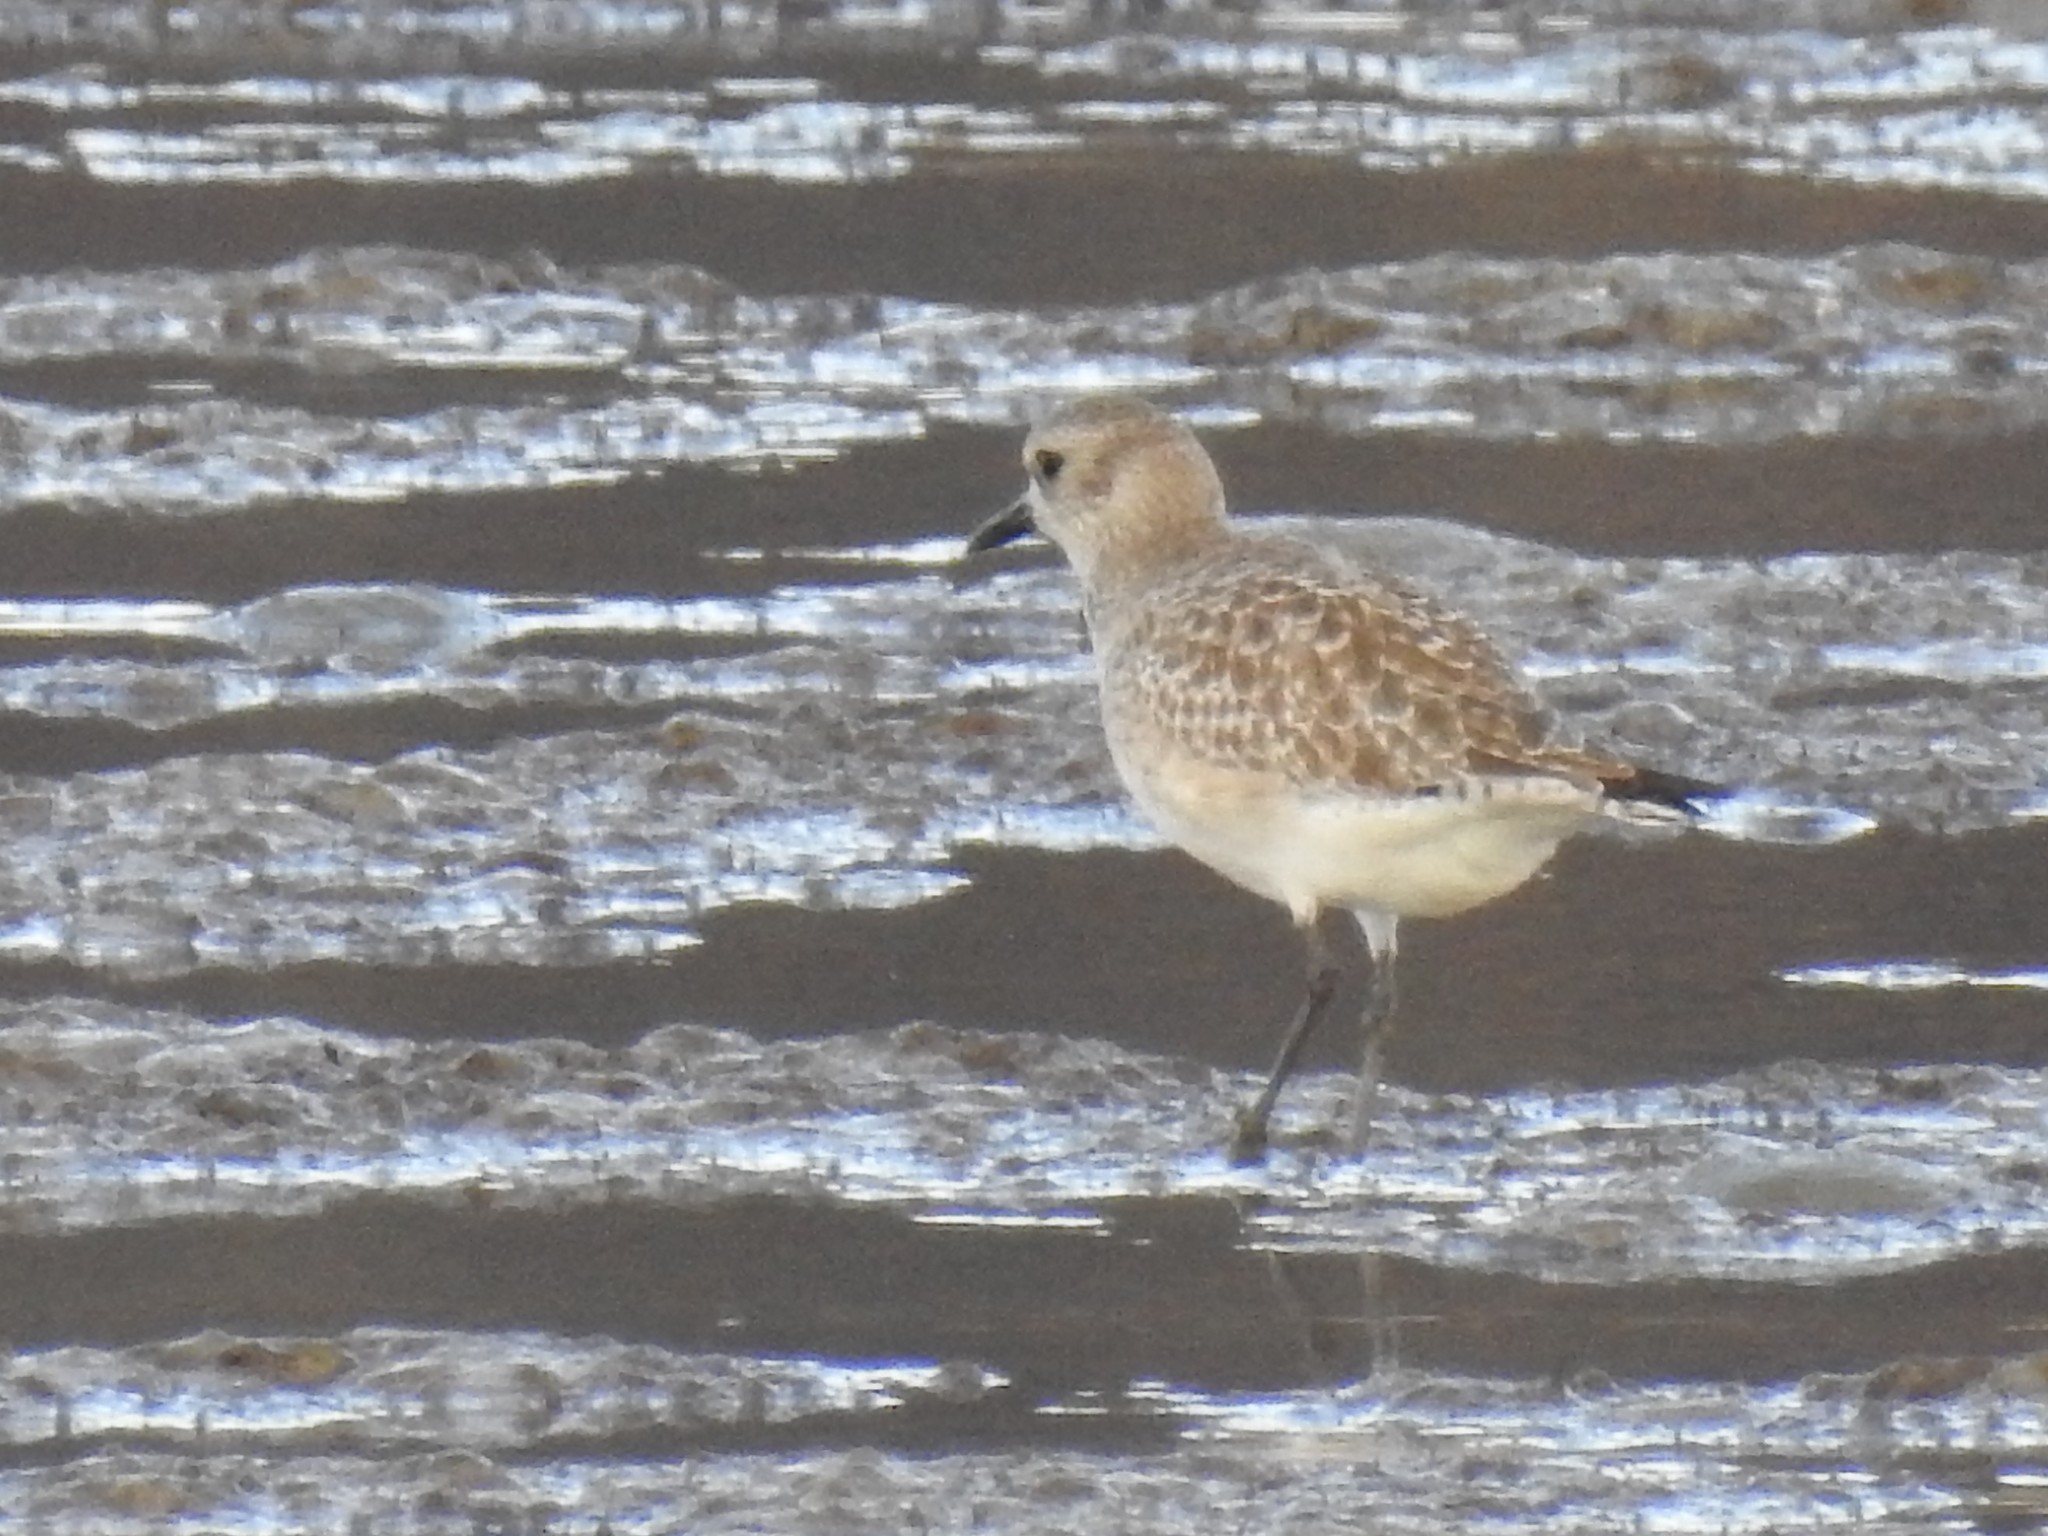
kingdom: Animalia
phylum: Chordata
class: Aves
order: Charadriiformes
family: Charadriidae
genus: Pluvialis
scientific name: Pluvialis squatarola
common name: Grey plover
